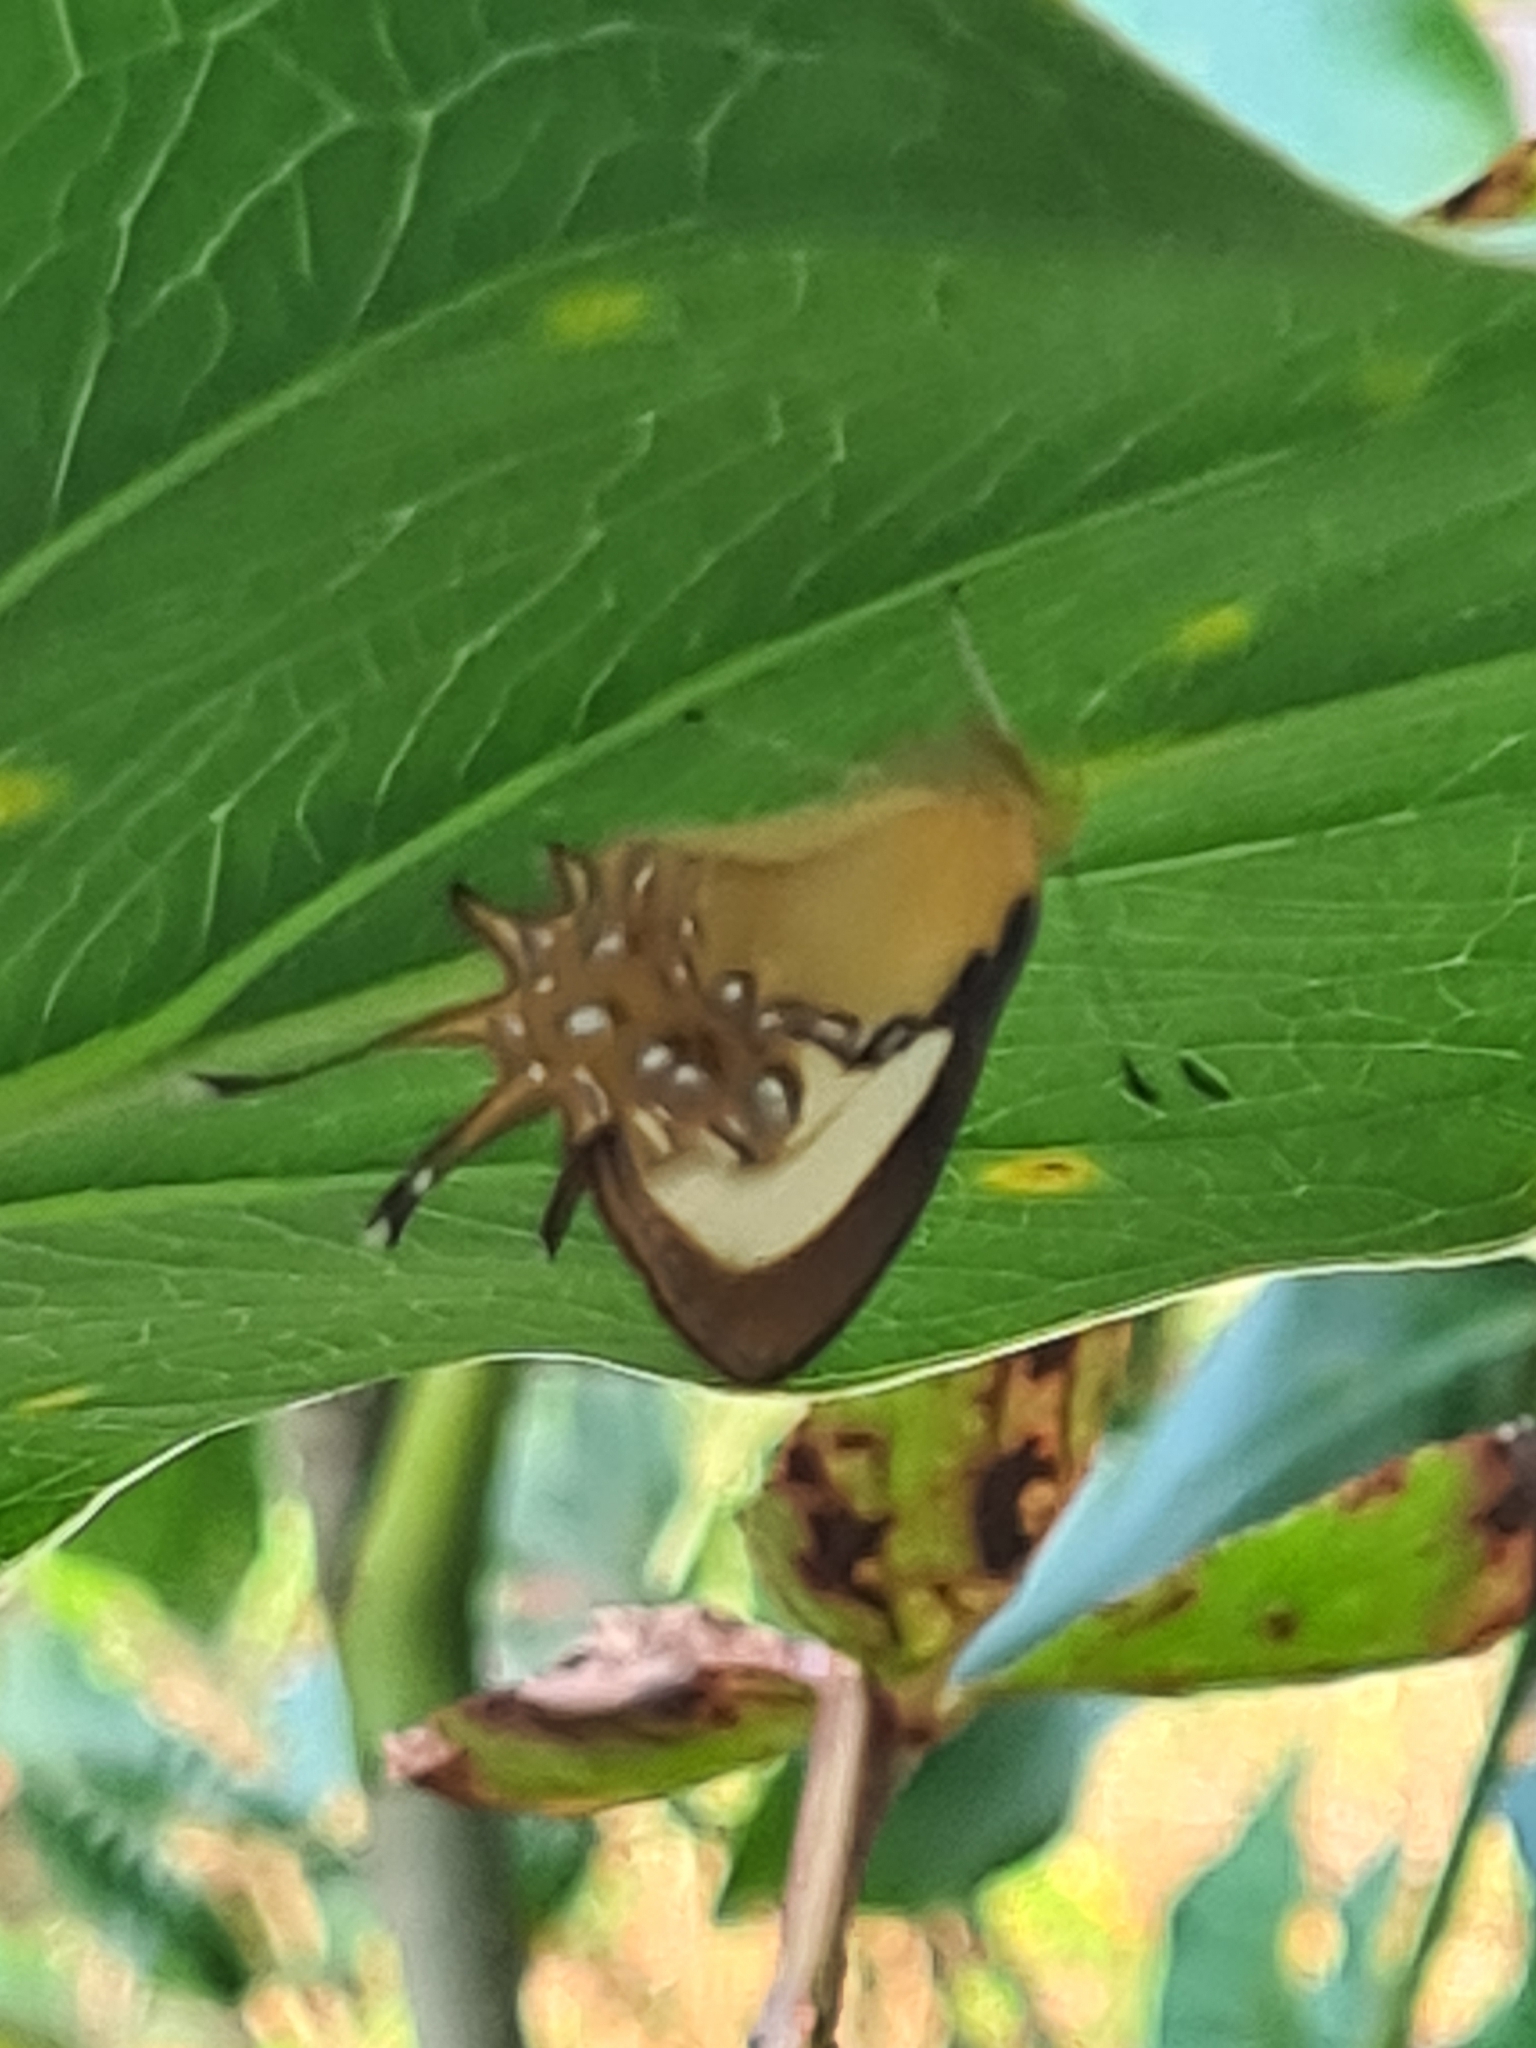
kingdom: Animalia
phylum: Arthropoda
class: Insecta
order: Lepidoptera
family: Riodinidae
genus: Helicopis
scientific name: Helicopis cupido
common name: Spangled cupid
